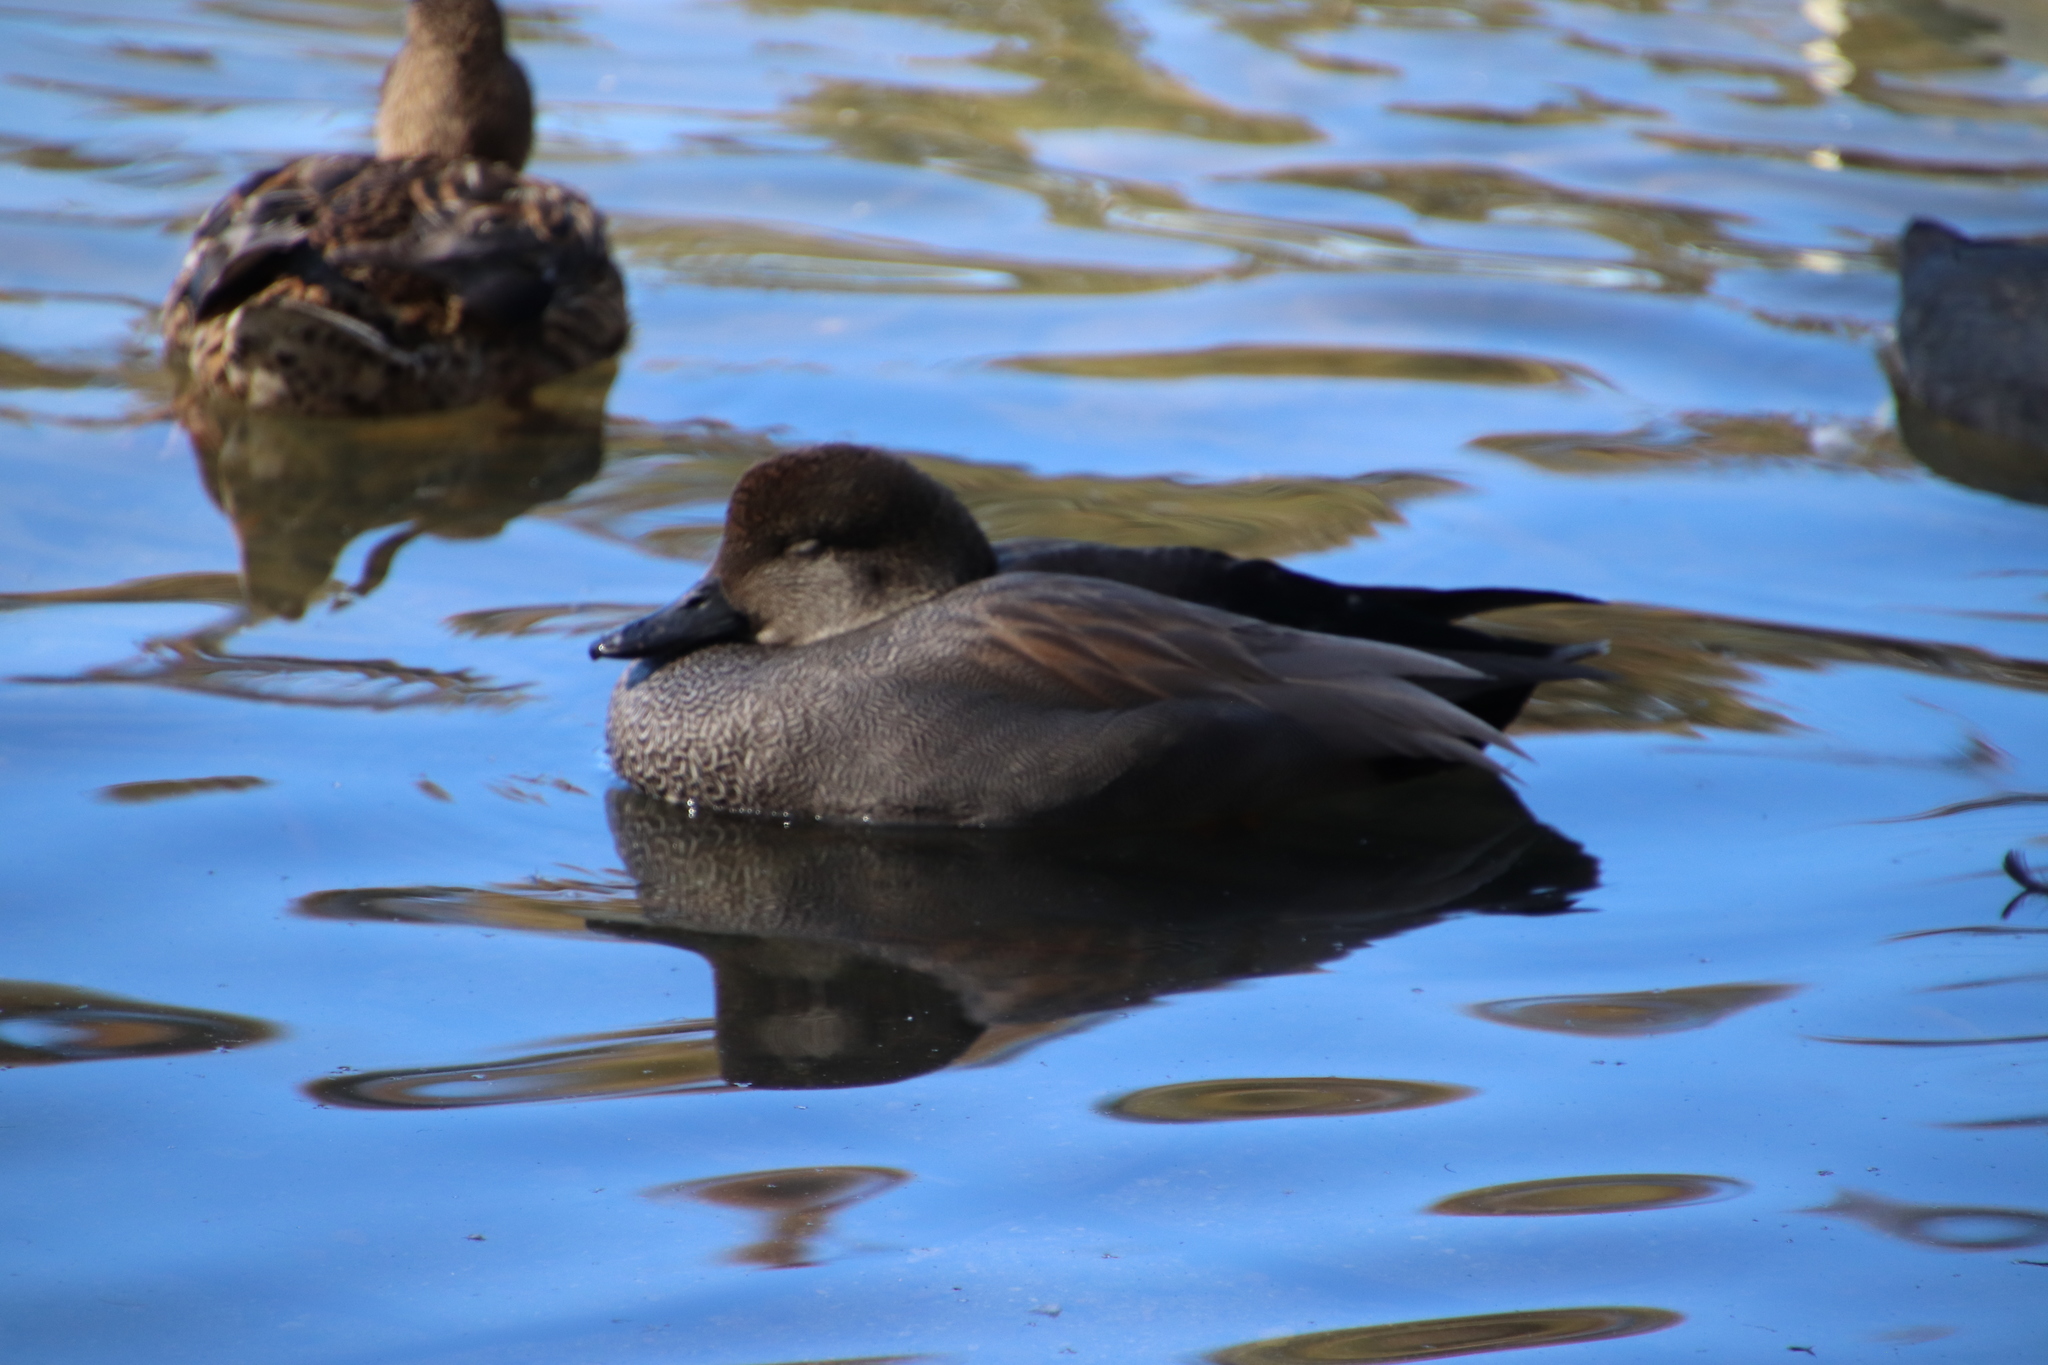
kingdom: Animalia
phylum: Chordata
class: Aves
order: Anseriformes
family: Anatidae
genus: Mareca
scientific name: Mareca strepera
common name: Gadwall
